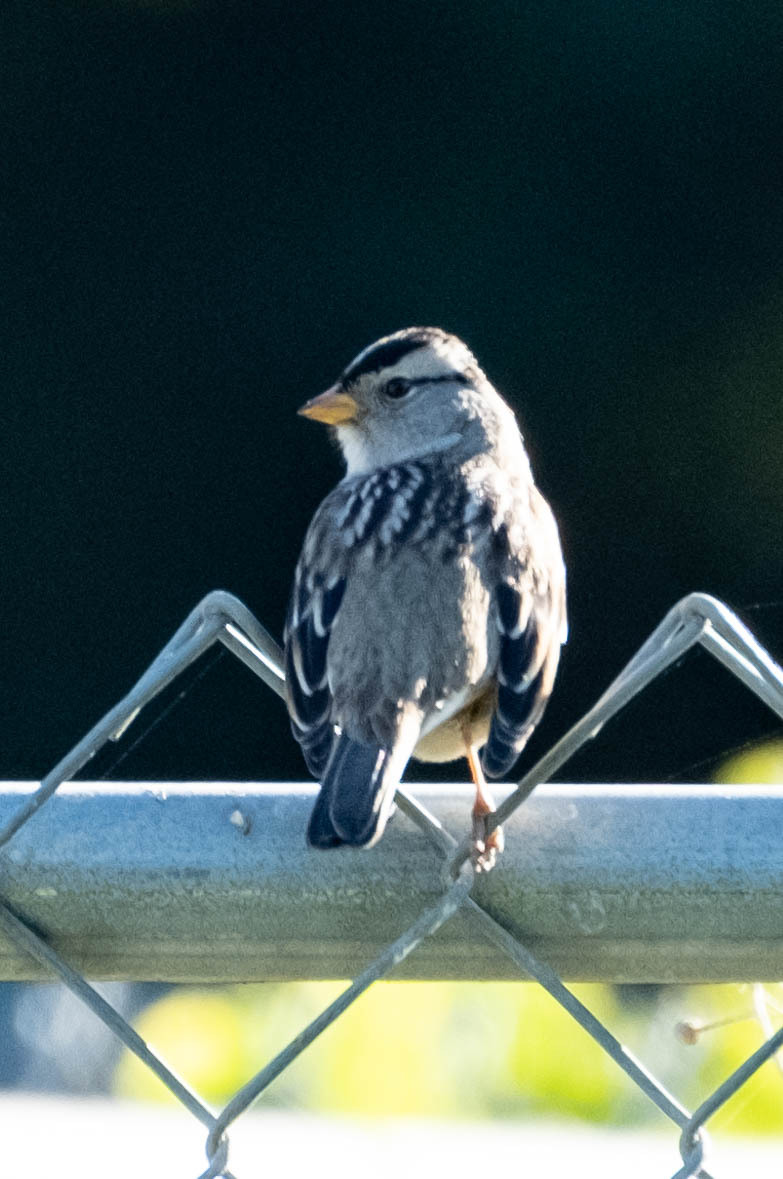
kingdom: Animalia
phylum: Chordata
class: Aves
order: Passeriformes
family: Passerellidae
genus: Zonotrichia
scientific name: Zonotrichia leucophrys
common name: White-crowned sparrow
